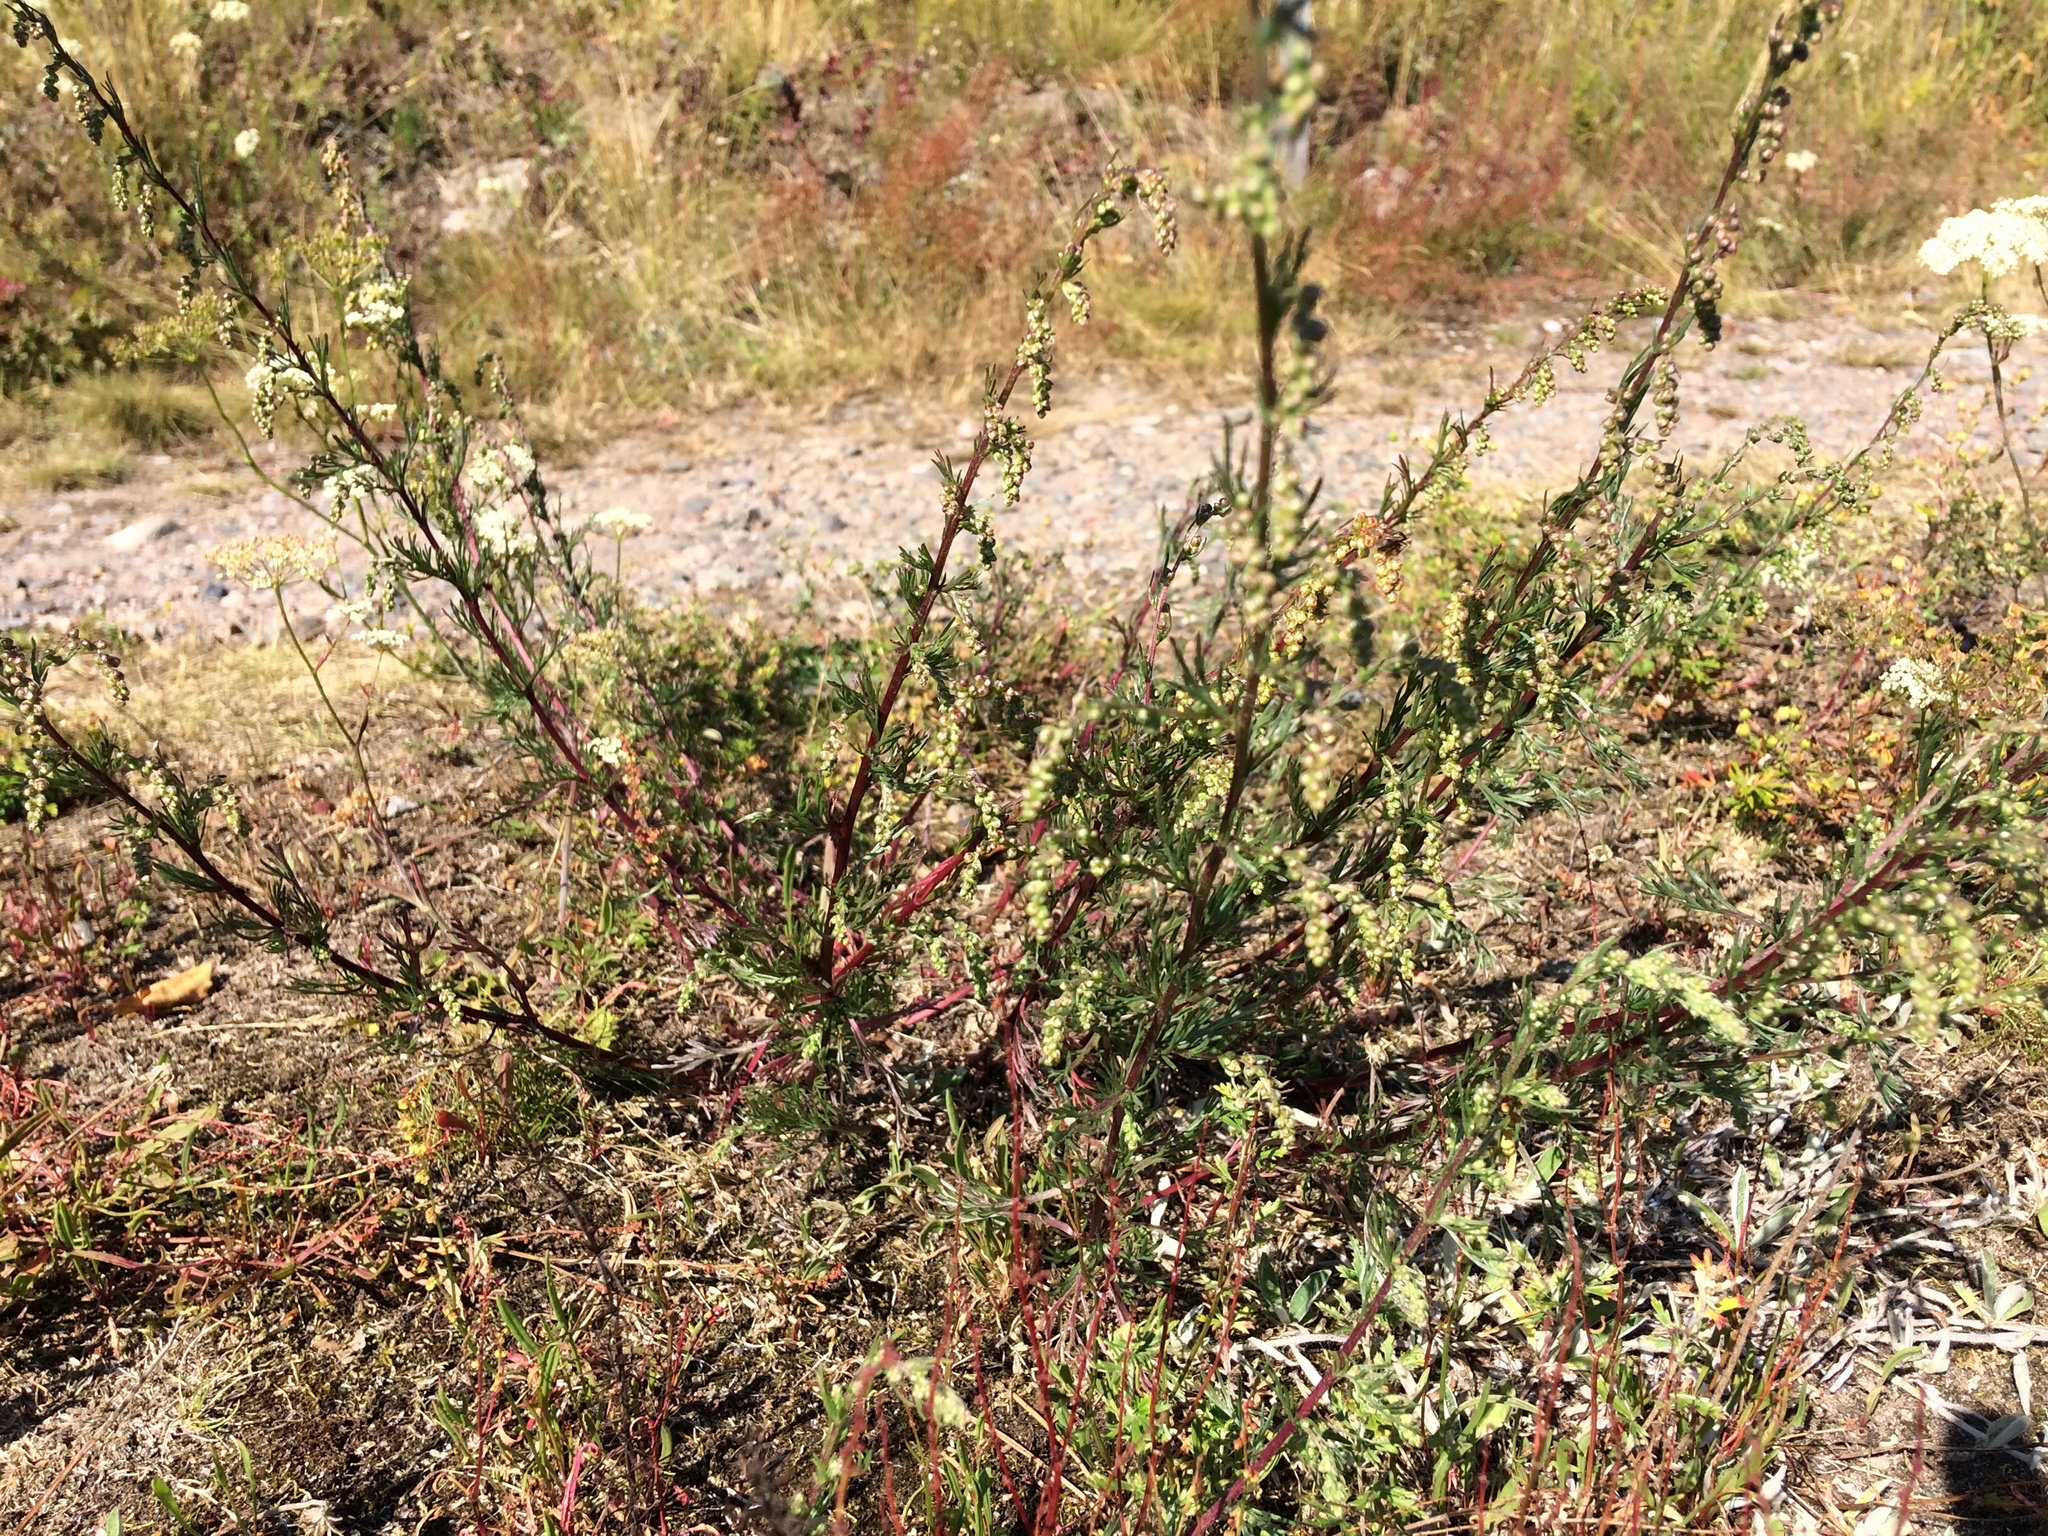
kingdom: Plantae
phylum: Tracheophyta
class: Magnoliopsida
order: Asterales
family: Asteraceae
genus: Artemisia
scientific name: Artemisia campestris
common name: Field wormwood
